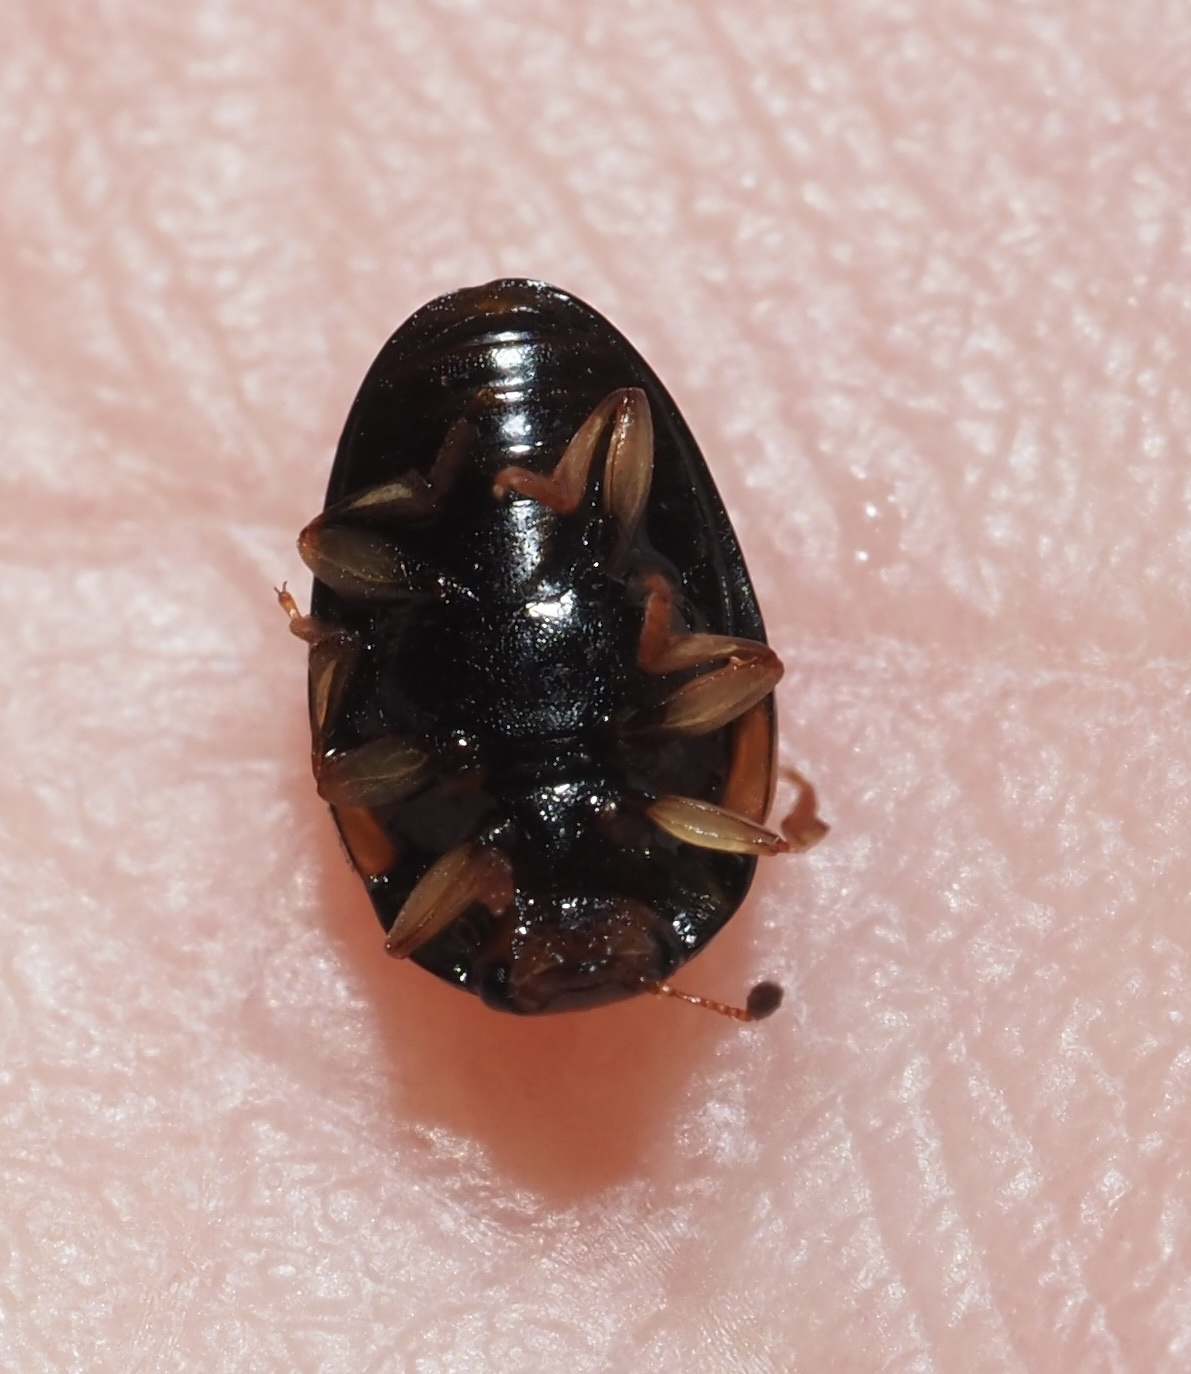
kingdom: Animalia
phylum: Arthropoda
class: Insecta
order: Coleoptera
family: Erotylidae
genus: Tritoma
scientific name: Tritoma humeralis
